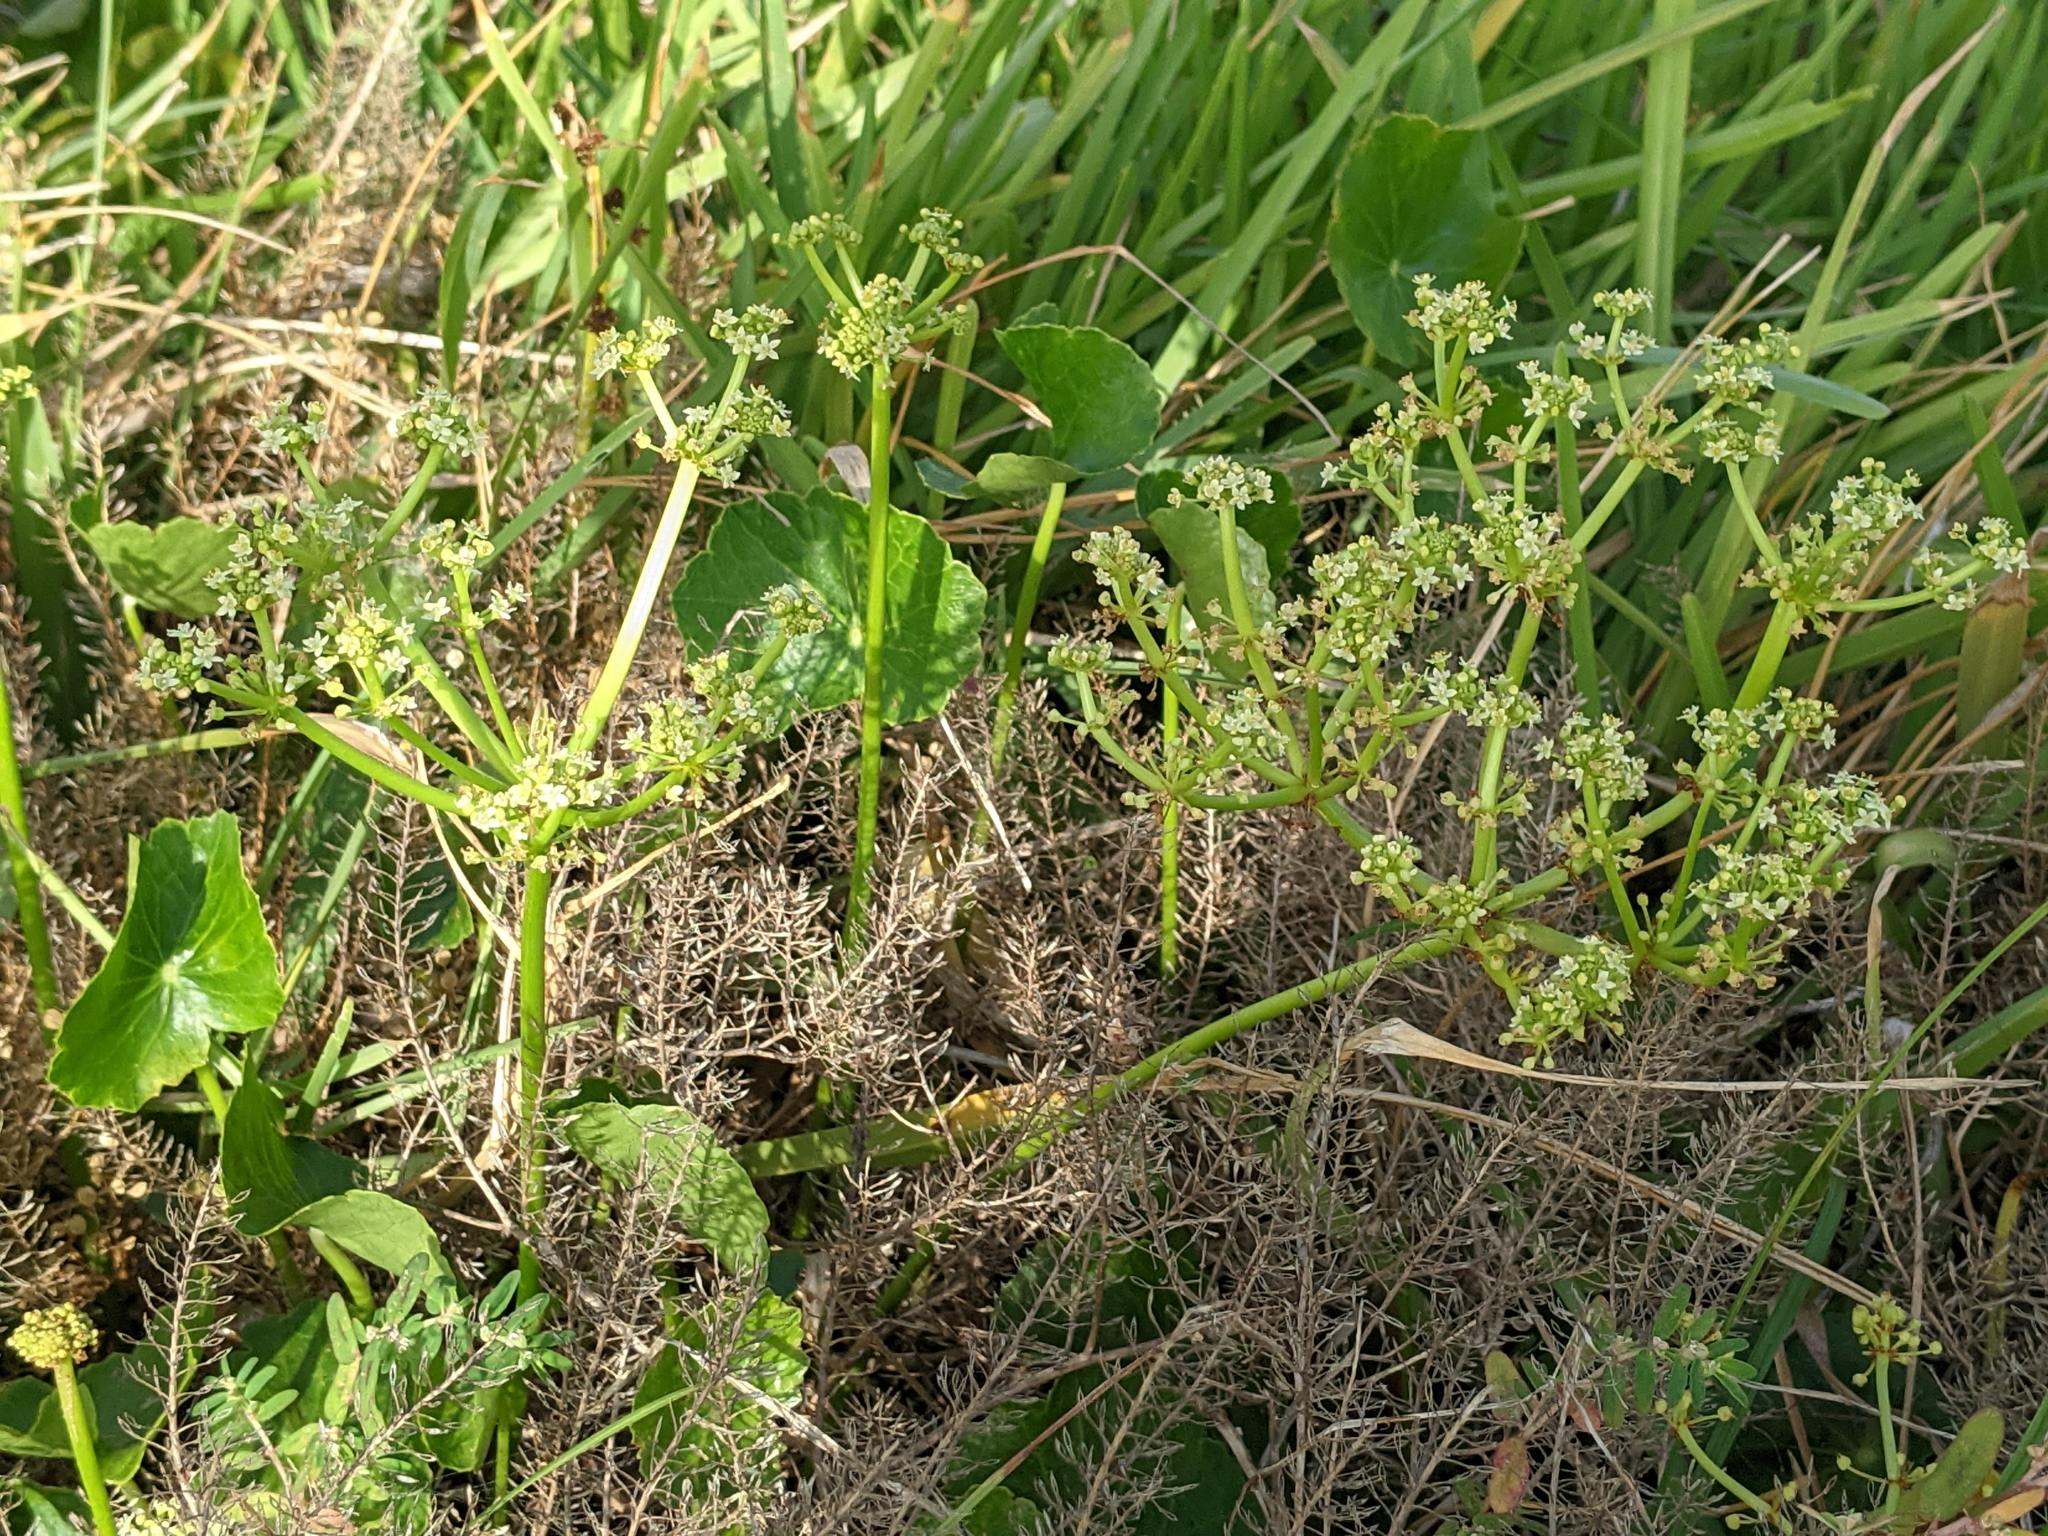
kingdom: Plantae
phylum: Tracheophyta
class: Magnoliopsida
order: Apiales
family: Araliaceae
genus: Hydrocotyle
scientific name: Hydrocotyle bonariensis
